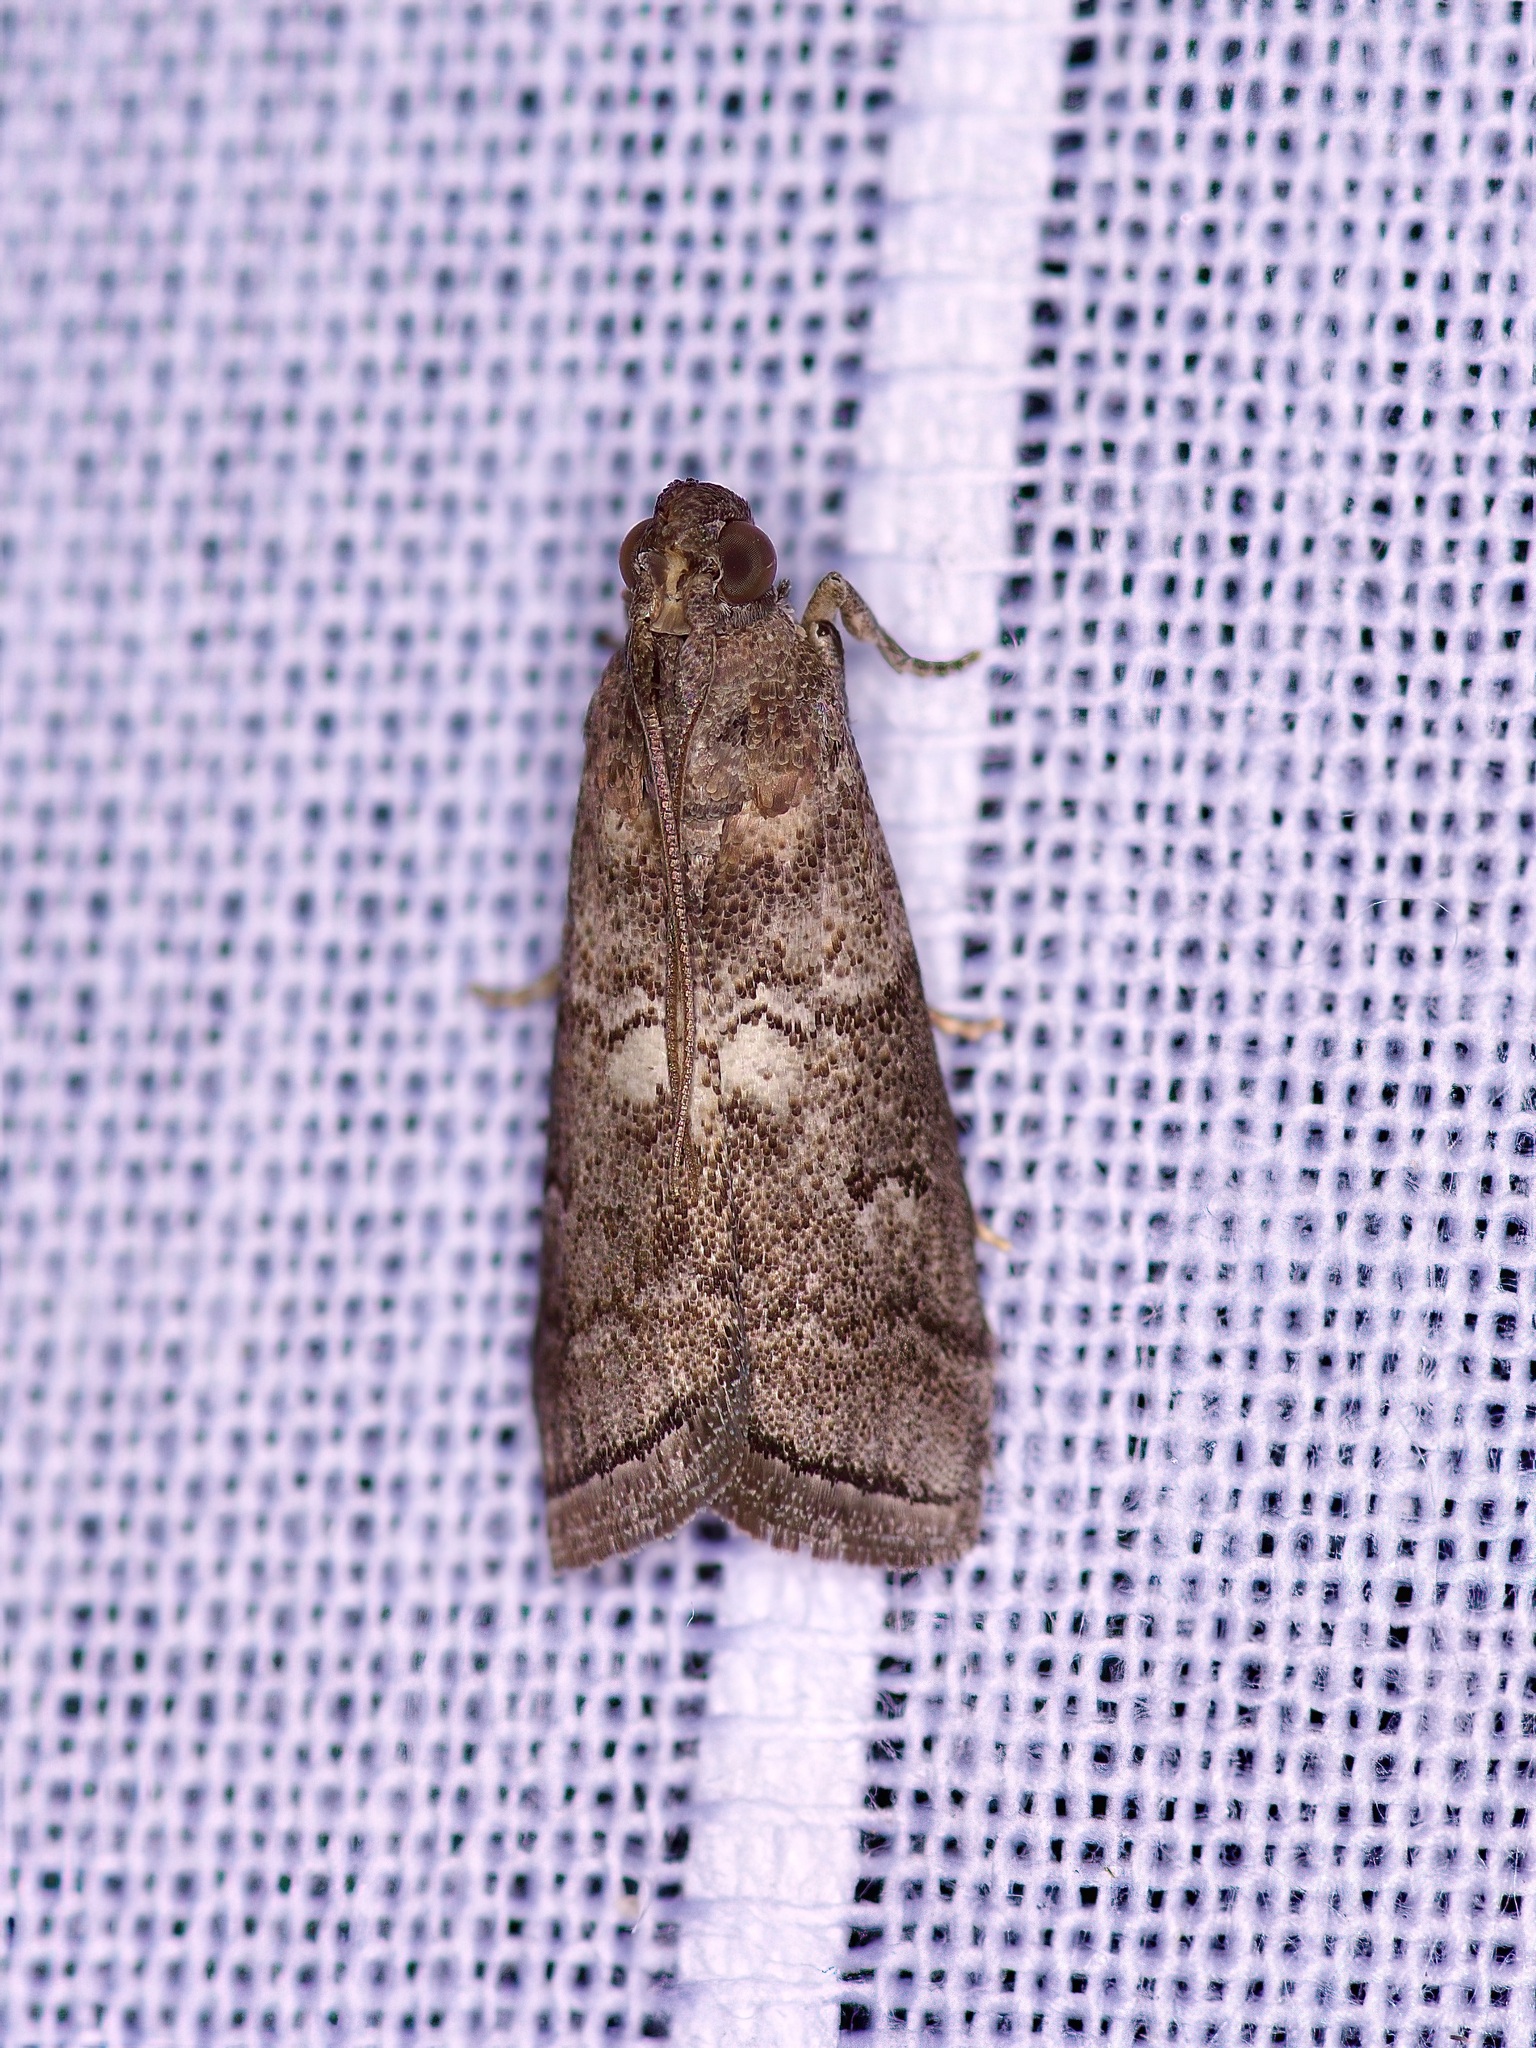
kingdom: Animalia
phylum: Arthropoda
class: Insecta
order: Lepidoptera
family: Pyralidae
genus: Salebriaria
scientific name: Salebriaria engeli
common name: Engel's salebriaria moth
